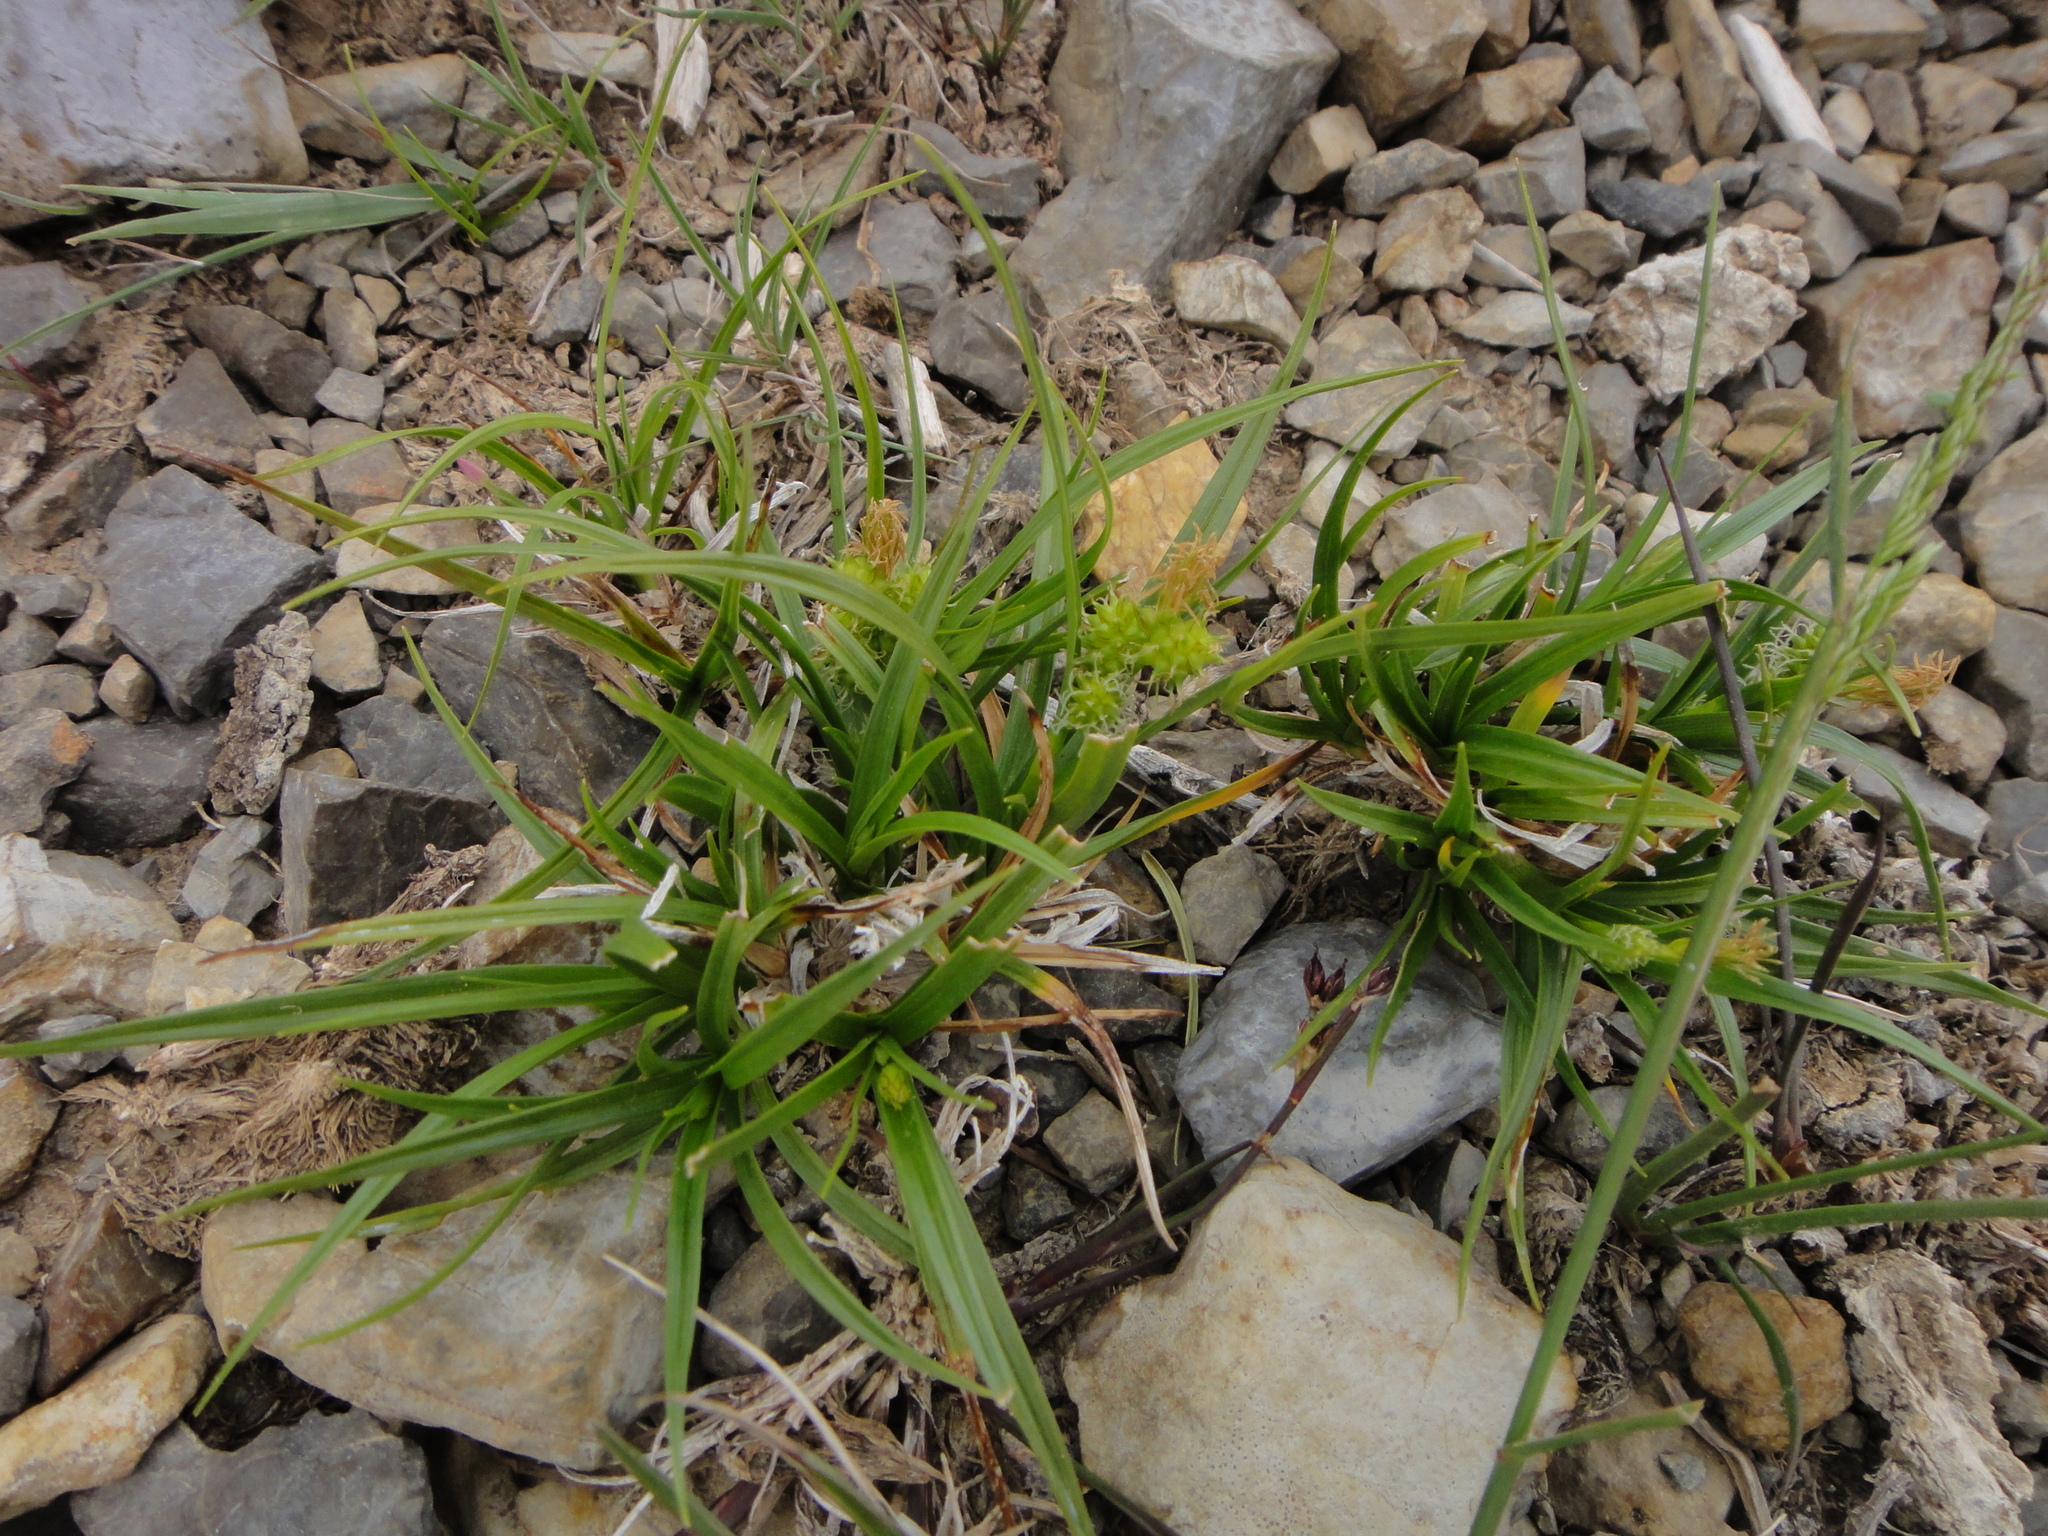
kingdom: Plantae
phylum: Tracheophyta
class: Liliopsida
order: Poales
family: Cyperaceae
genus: Carex
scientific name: Carex oederi
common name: Common & small-fruited yellow-sedge
